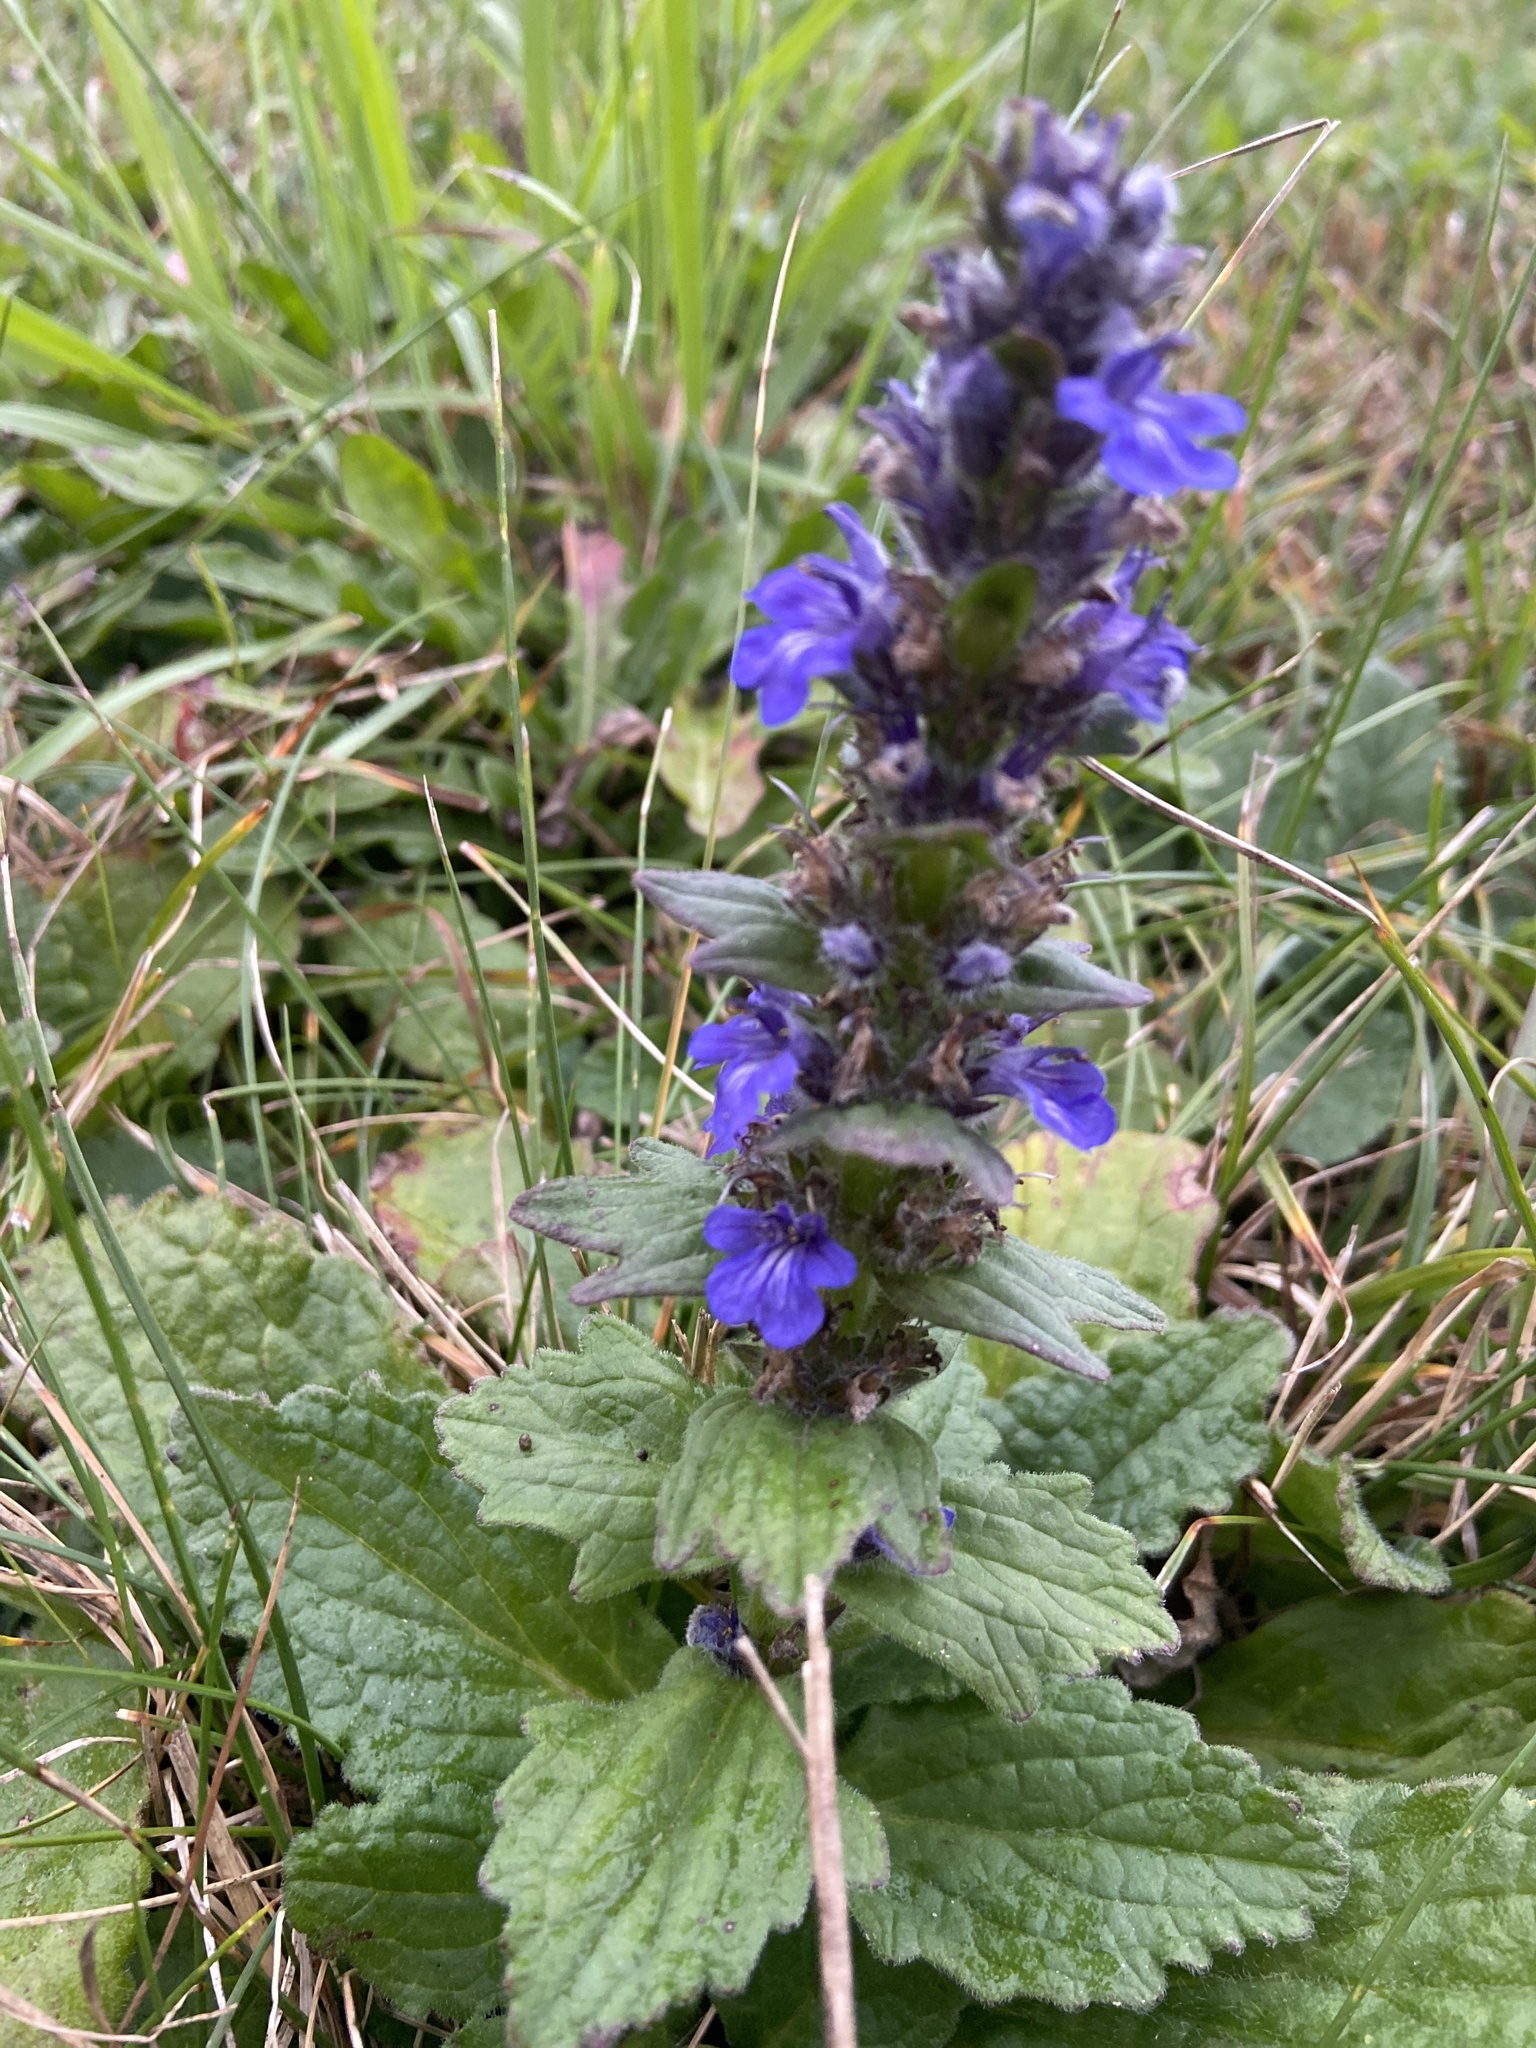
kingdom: Plantae
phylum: Tracheophyta
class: Magnoliopsida
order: Lamiales
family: Lamiaceae
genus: Ajuga
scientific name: Ajuga genevensis
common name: Blue bugle
